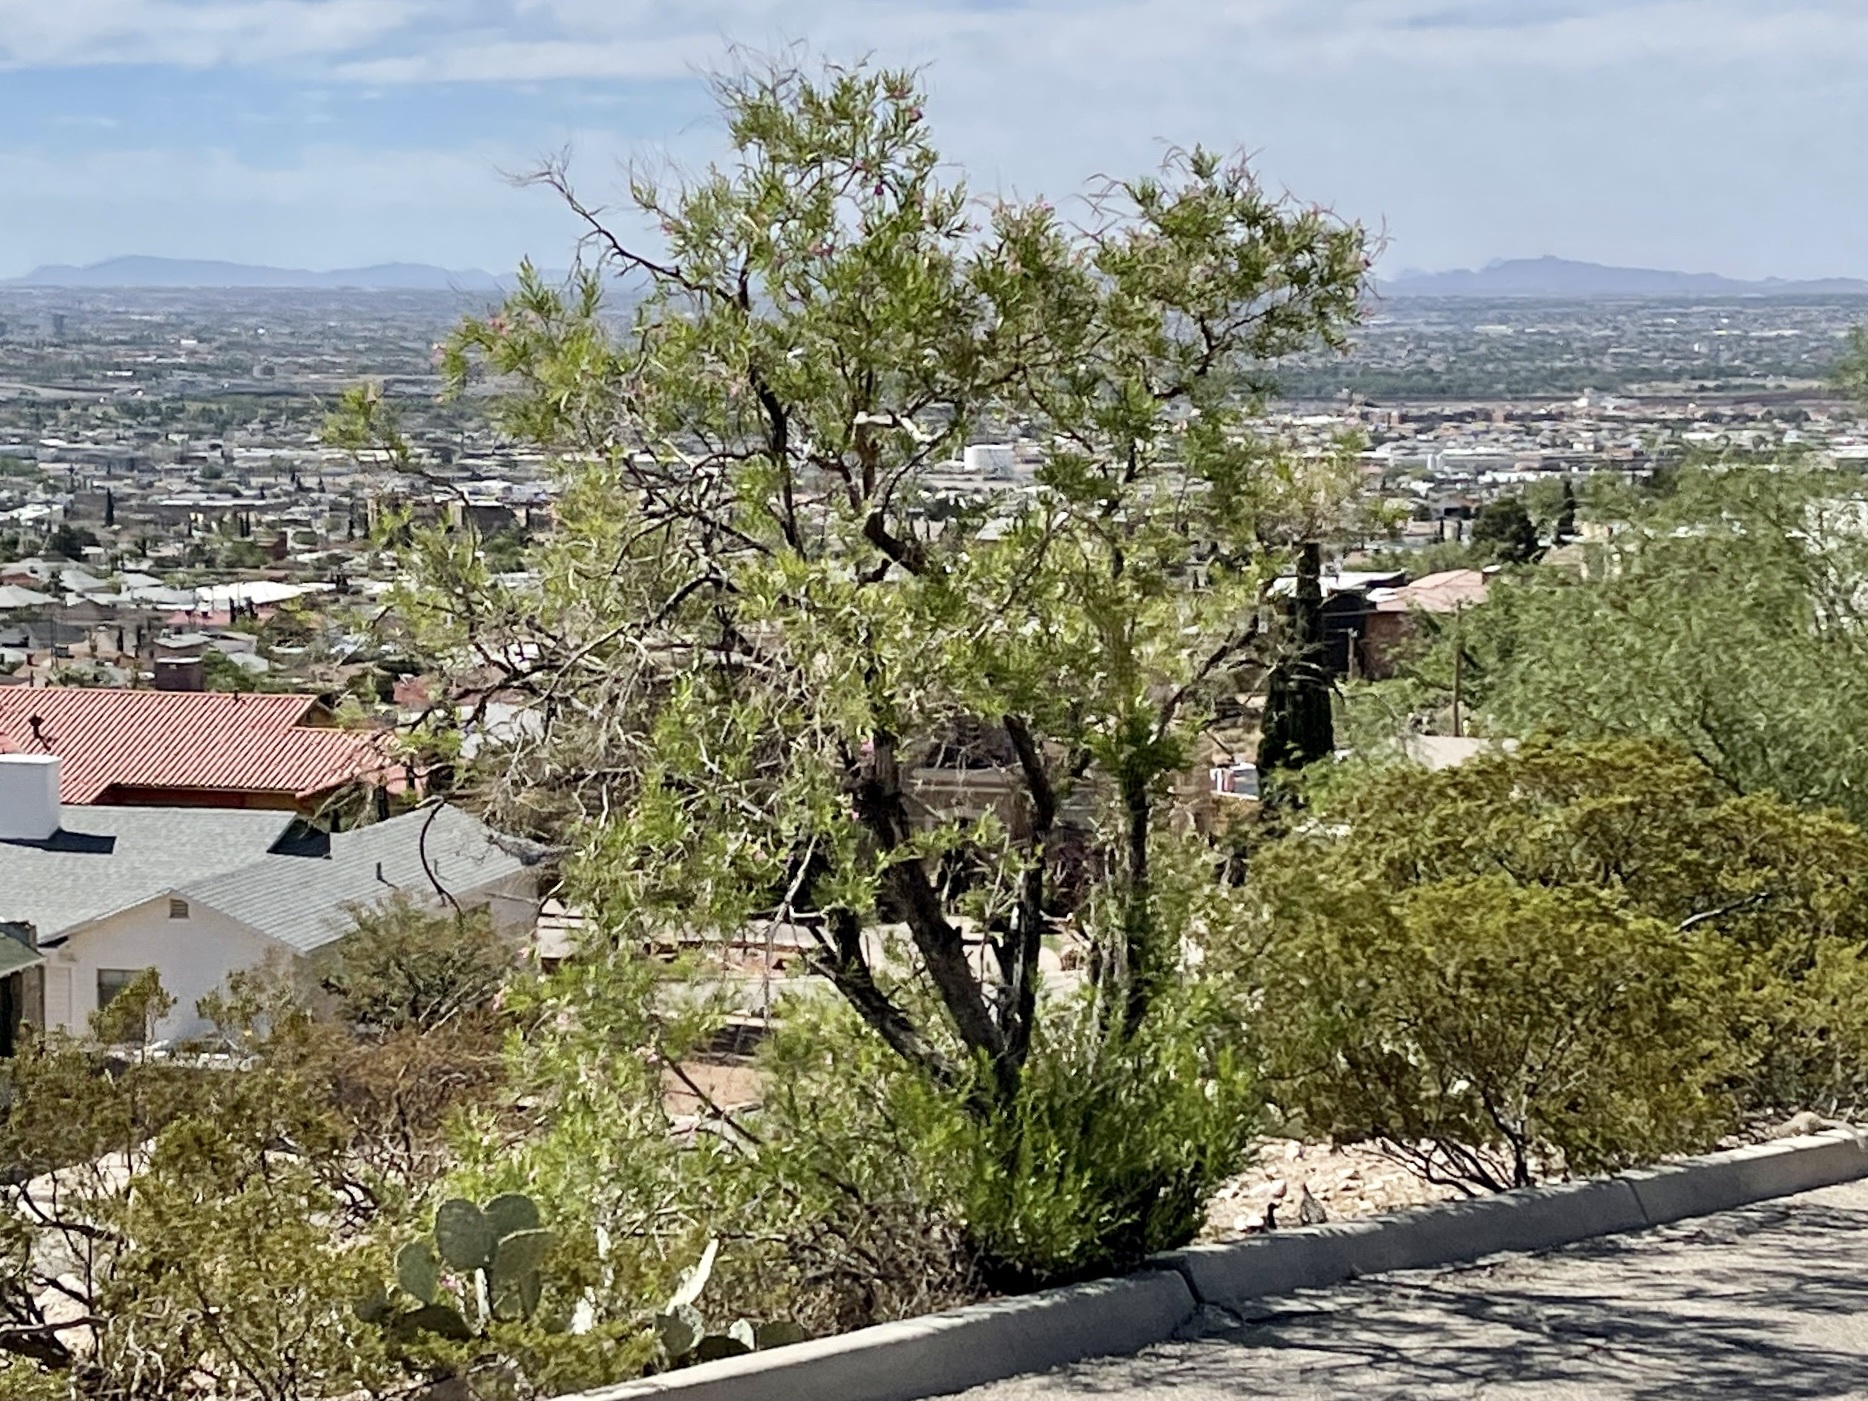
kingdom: Plantae
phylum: Tracheophyta
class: Magnoliopsida
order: Lamiales
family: Bignoniaceae
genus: Chilopsis
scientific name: Chilopsis linearis
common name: Desert-willow
